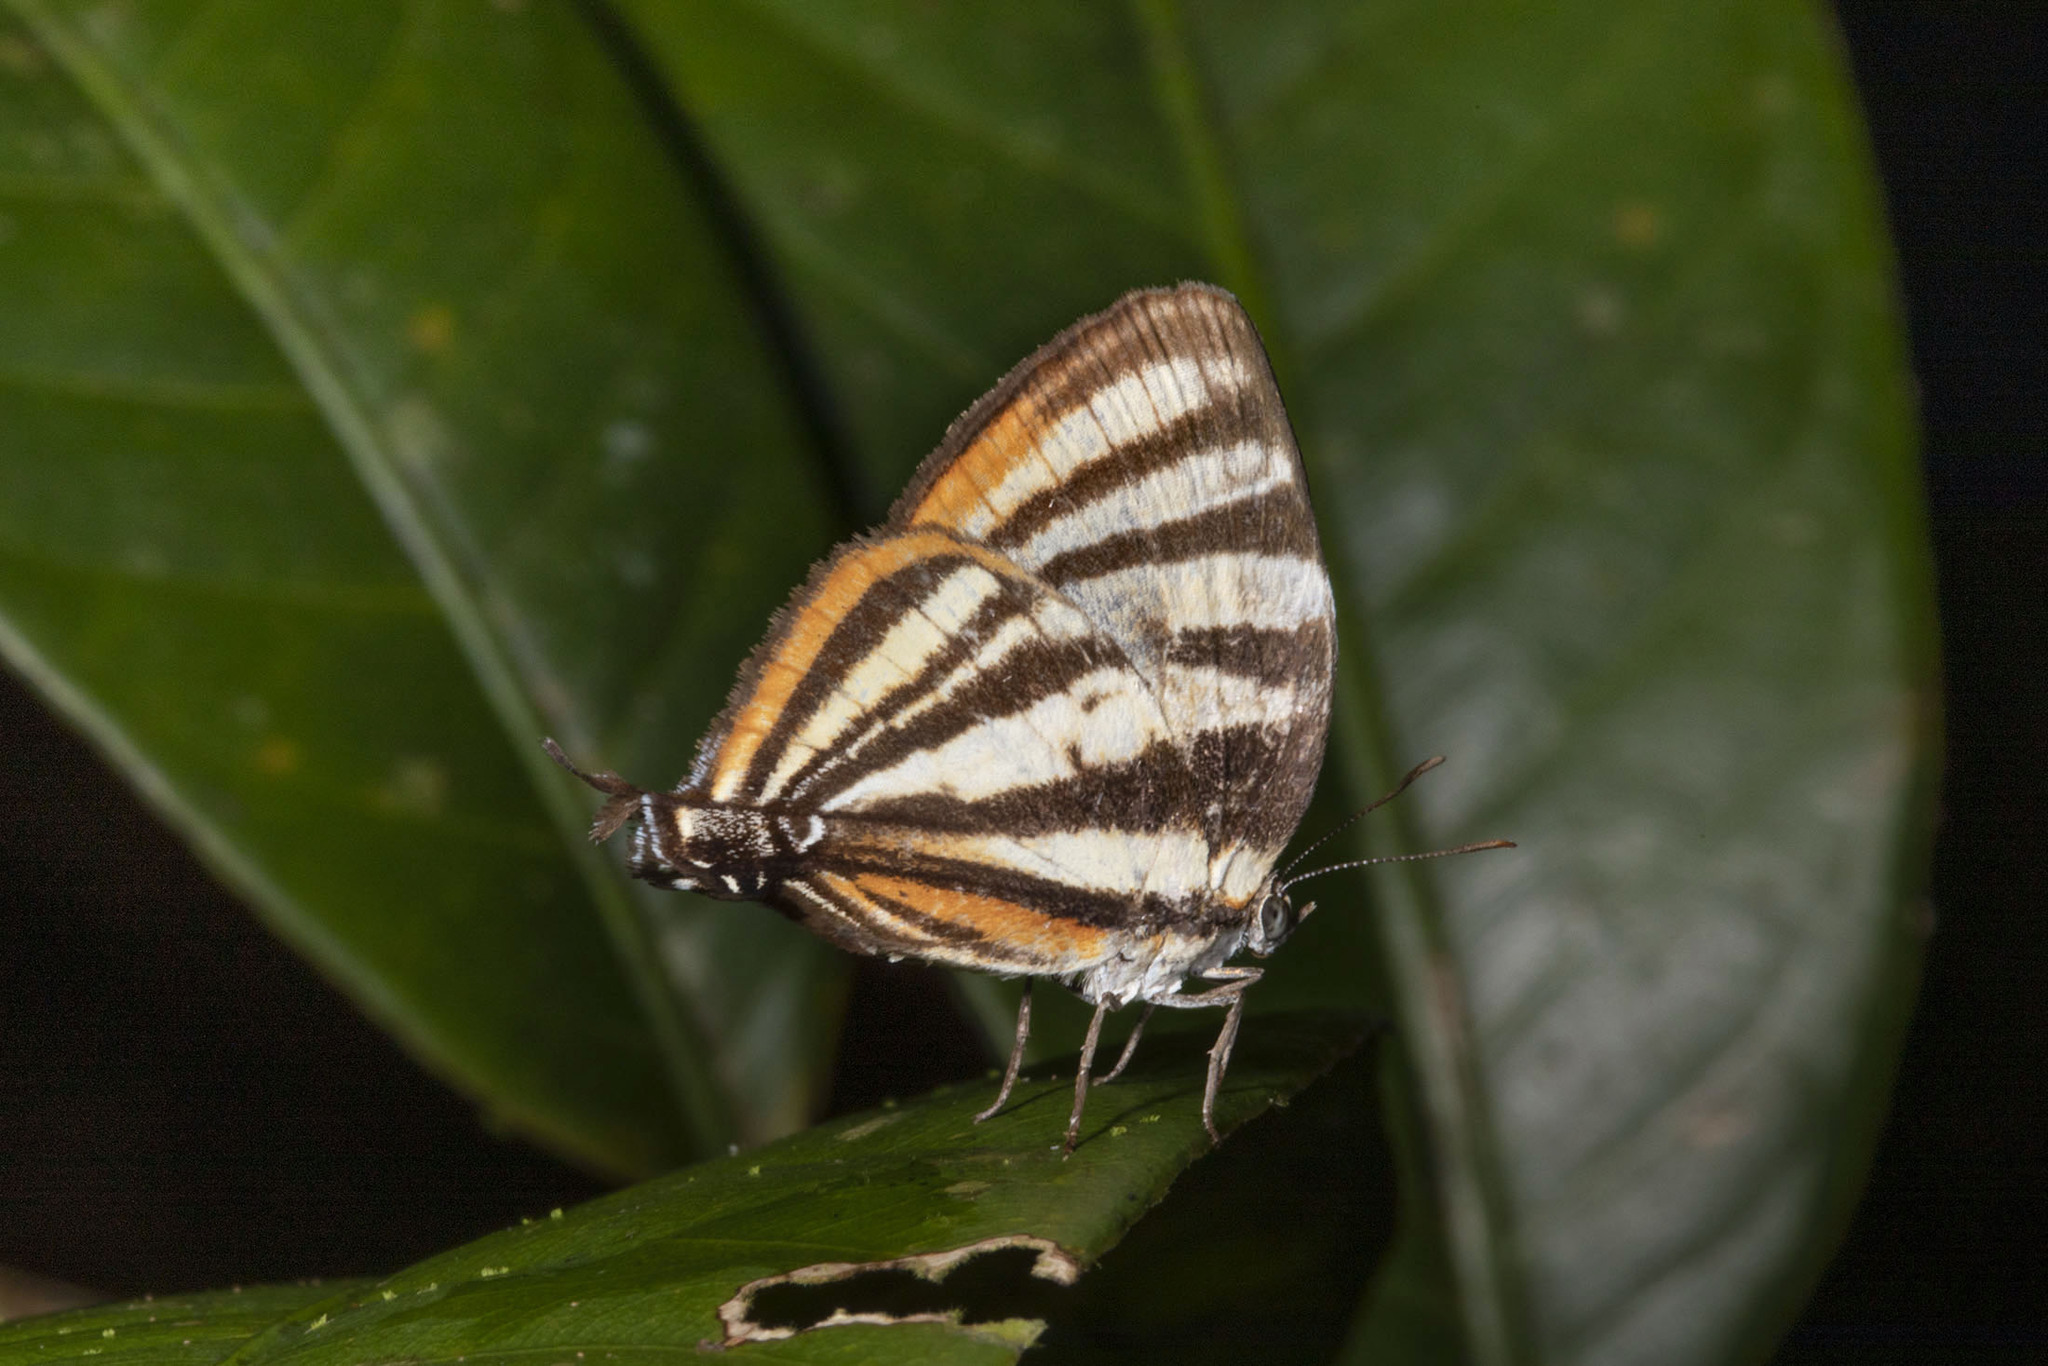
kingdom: Animalia
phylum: Arthropoda
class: Insecta
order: Lepidoptera
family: Lycaenidae
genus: Thecla
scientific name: Thecla aetolus
